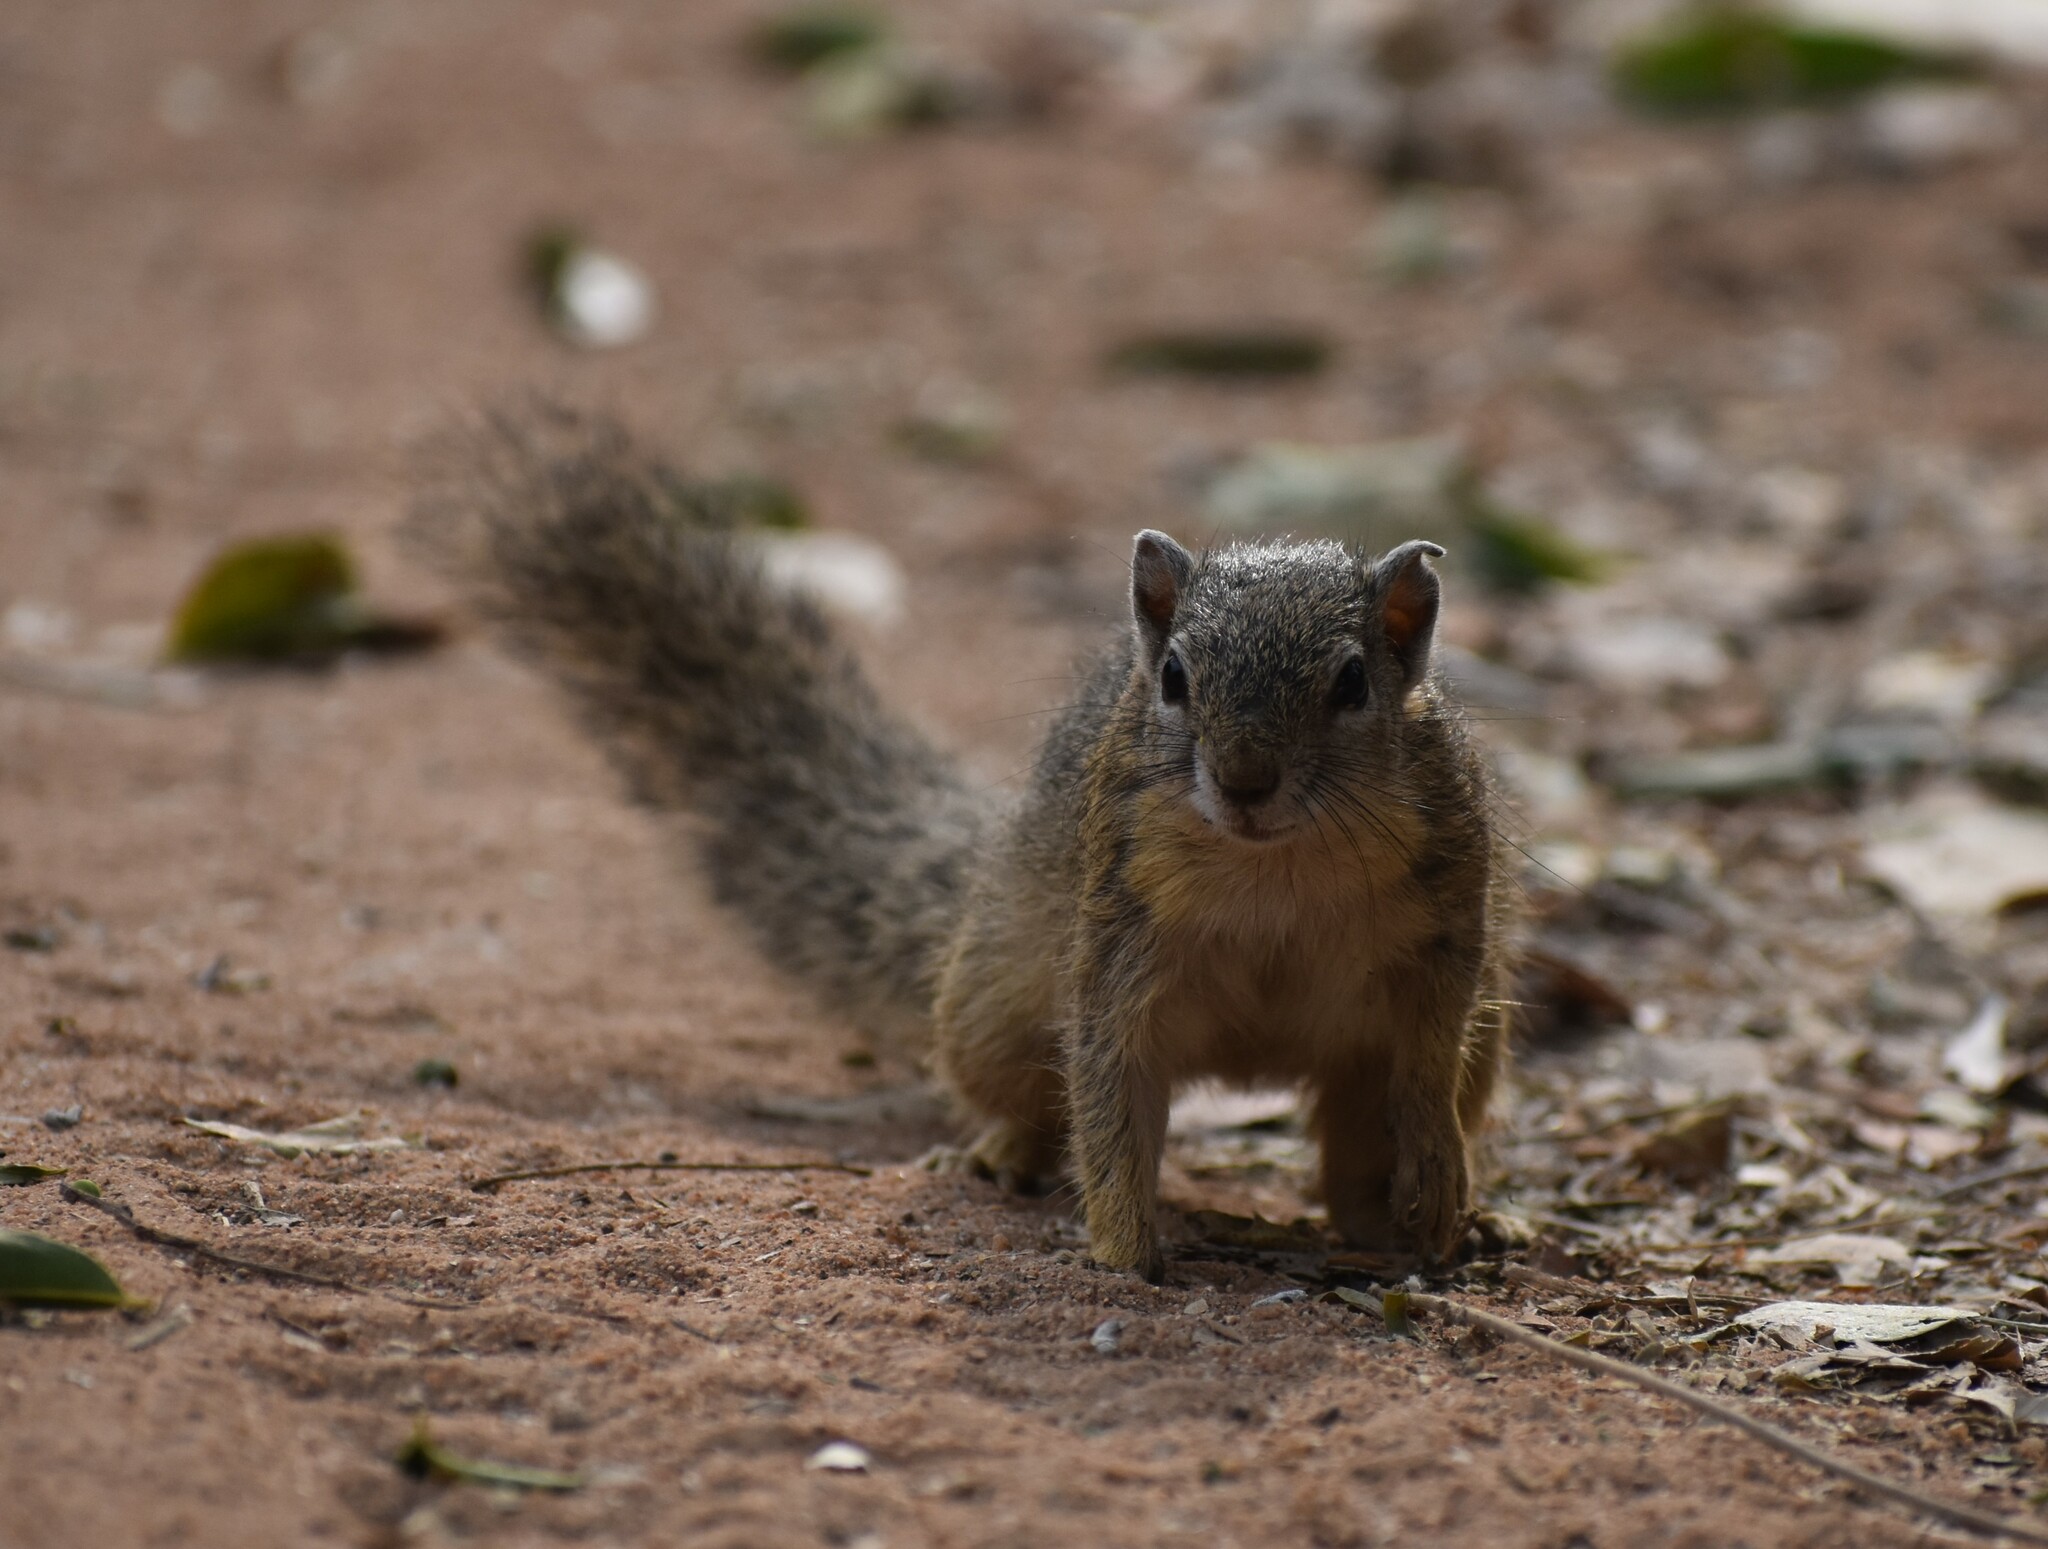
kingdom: Animalia
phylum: Chordata
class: Mammalia
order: Rodentia
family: Sciuridae
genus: Paraxerus
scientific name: Paraxerus cepapi
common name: Smith's bush squirrel
